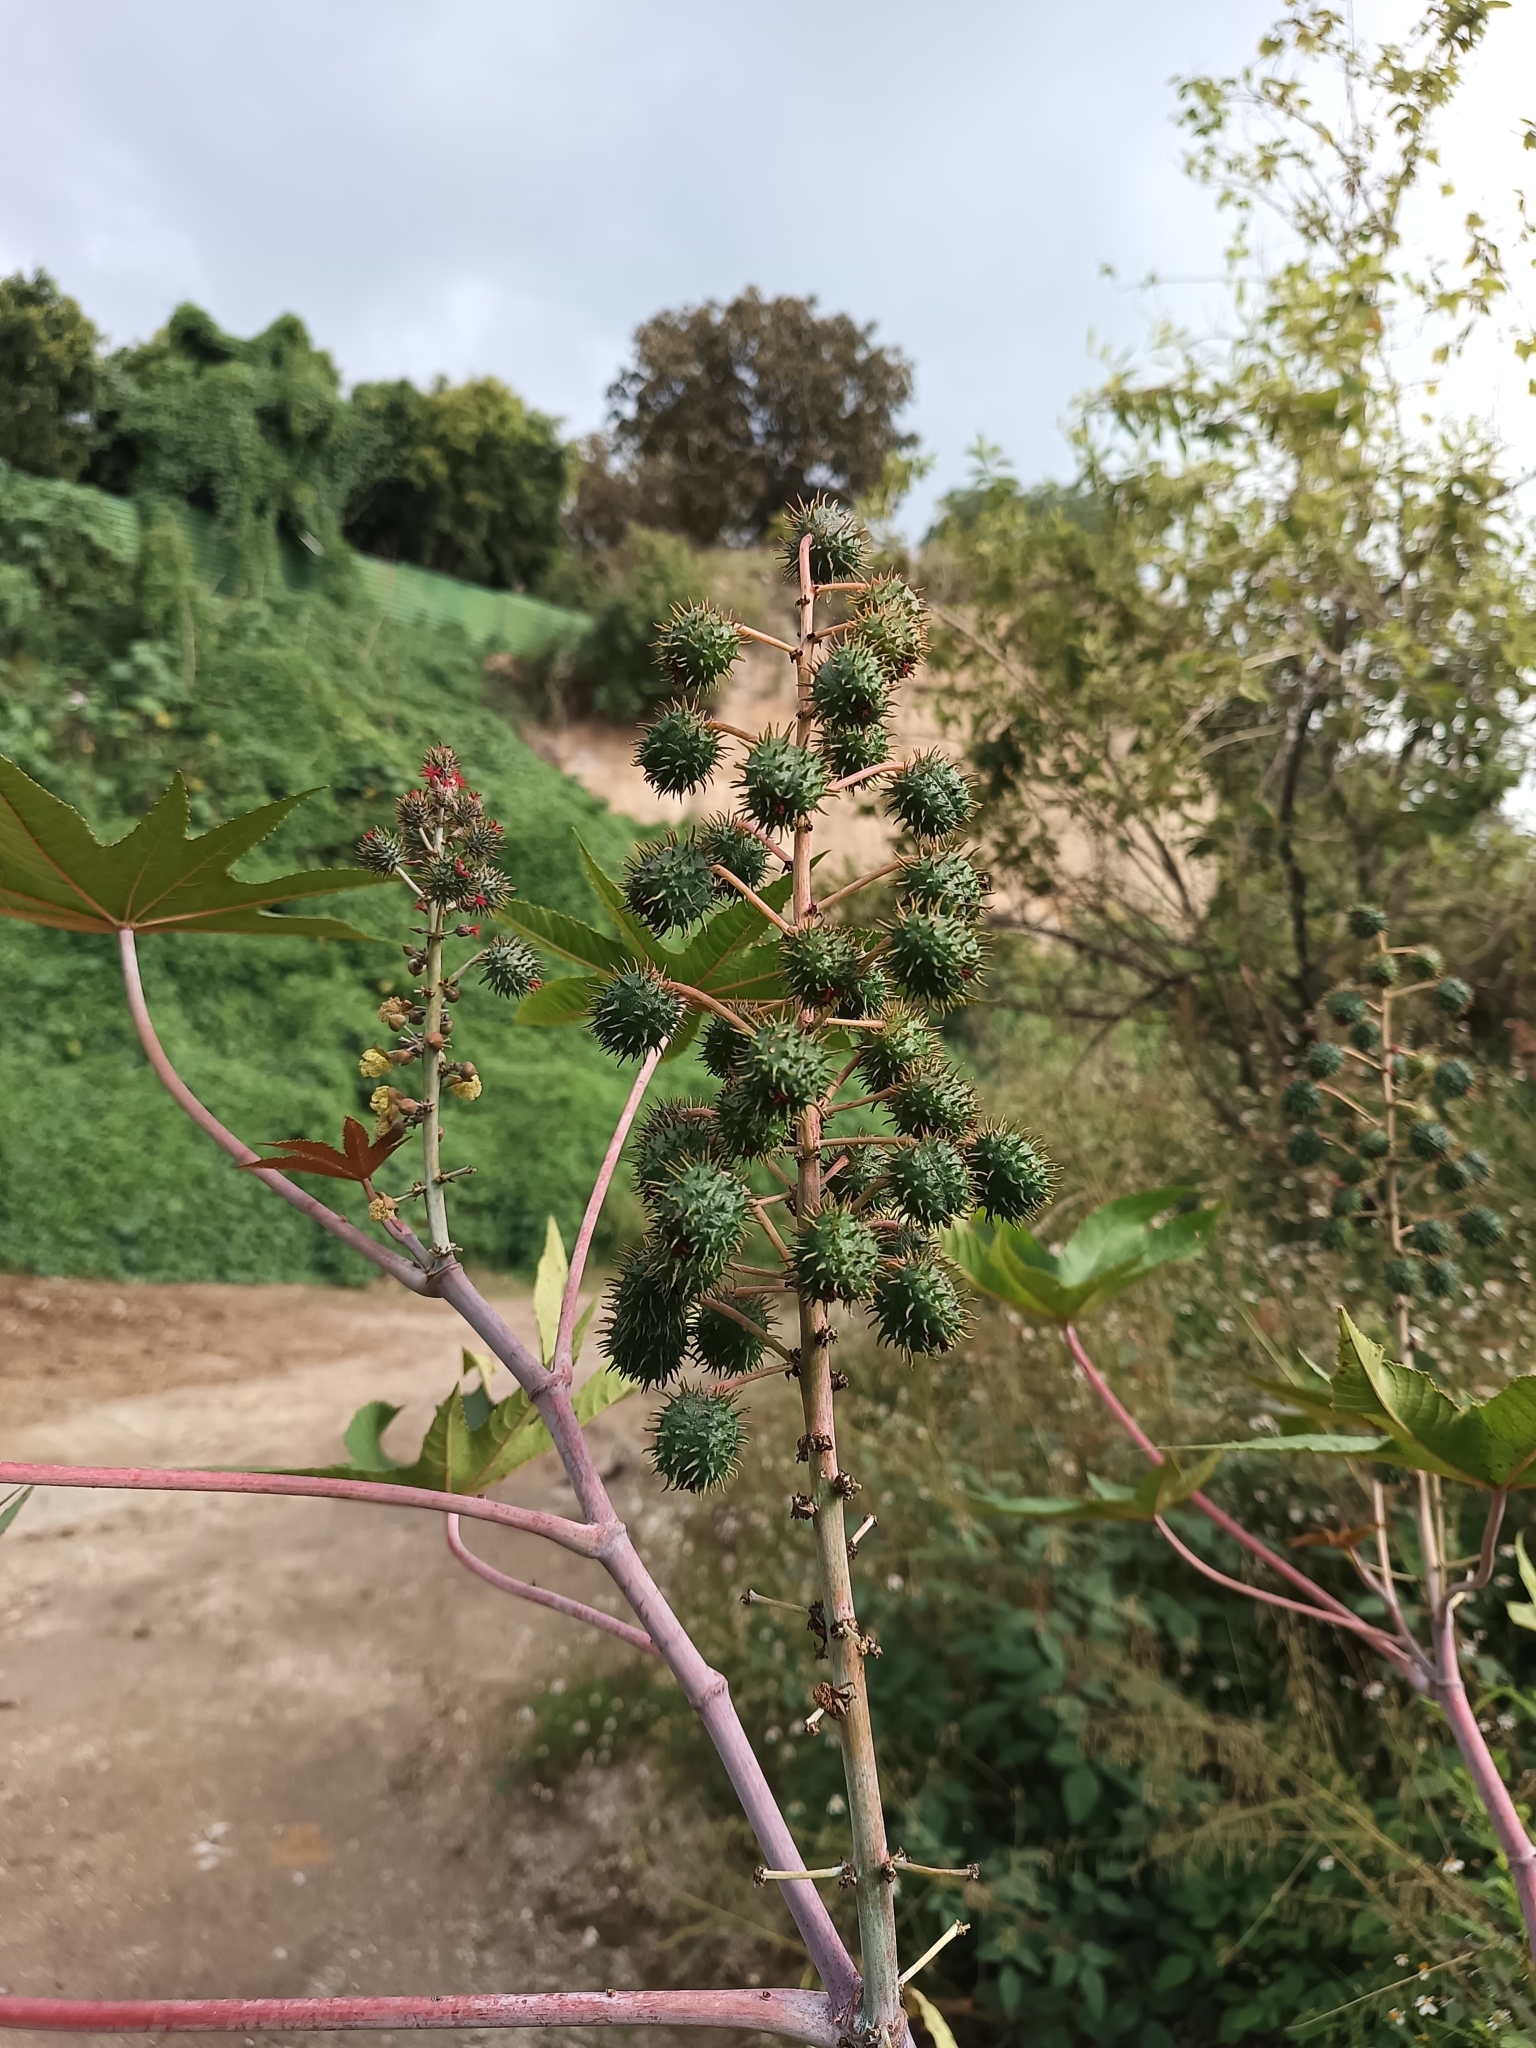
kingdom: Plantae
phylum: Tracheophyta
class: Magnoliopsida
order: Malpighiales
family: Euphorbiaceae
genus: Ricinus
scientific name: Ricinus communis
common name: Castor-oil-plant
